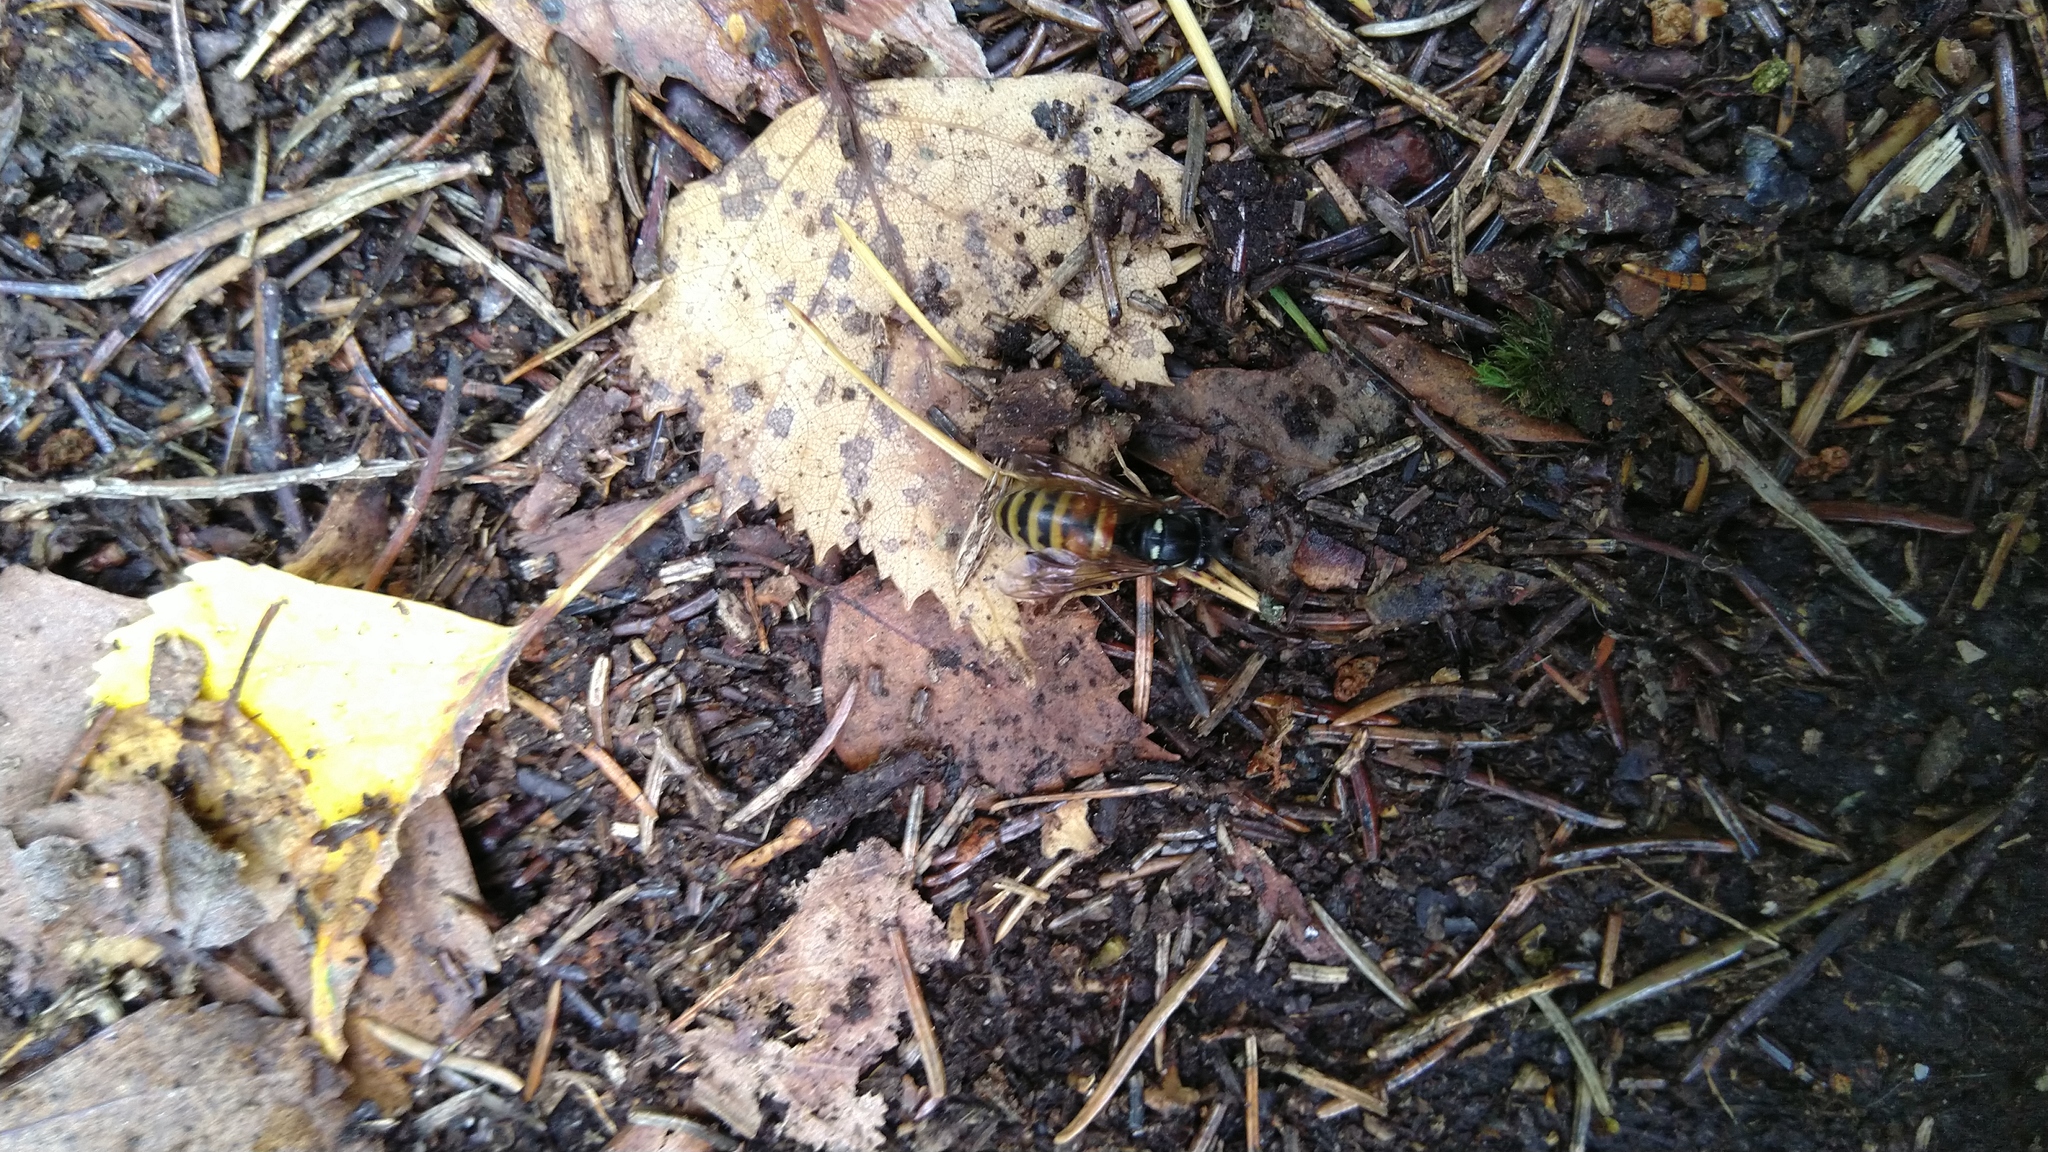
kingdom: Animalia
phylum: Arthropoda
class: Insecta
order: Hymenoptera
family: Vespidae
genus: Vespula
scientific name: Vespula rufa
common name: Red wasp
